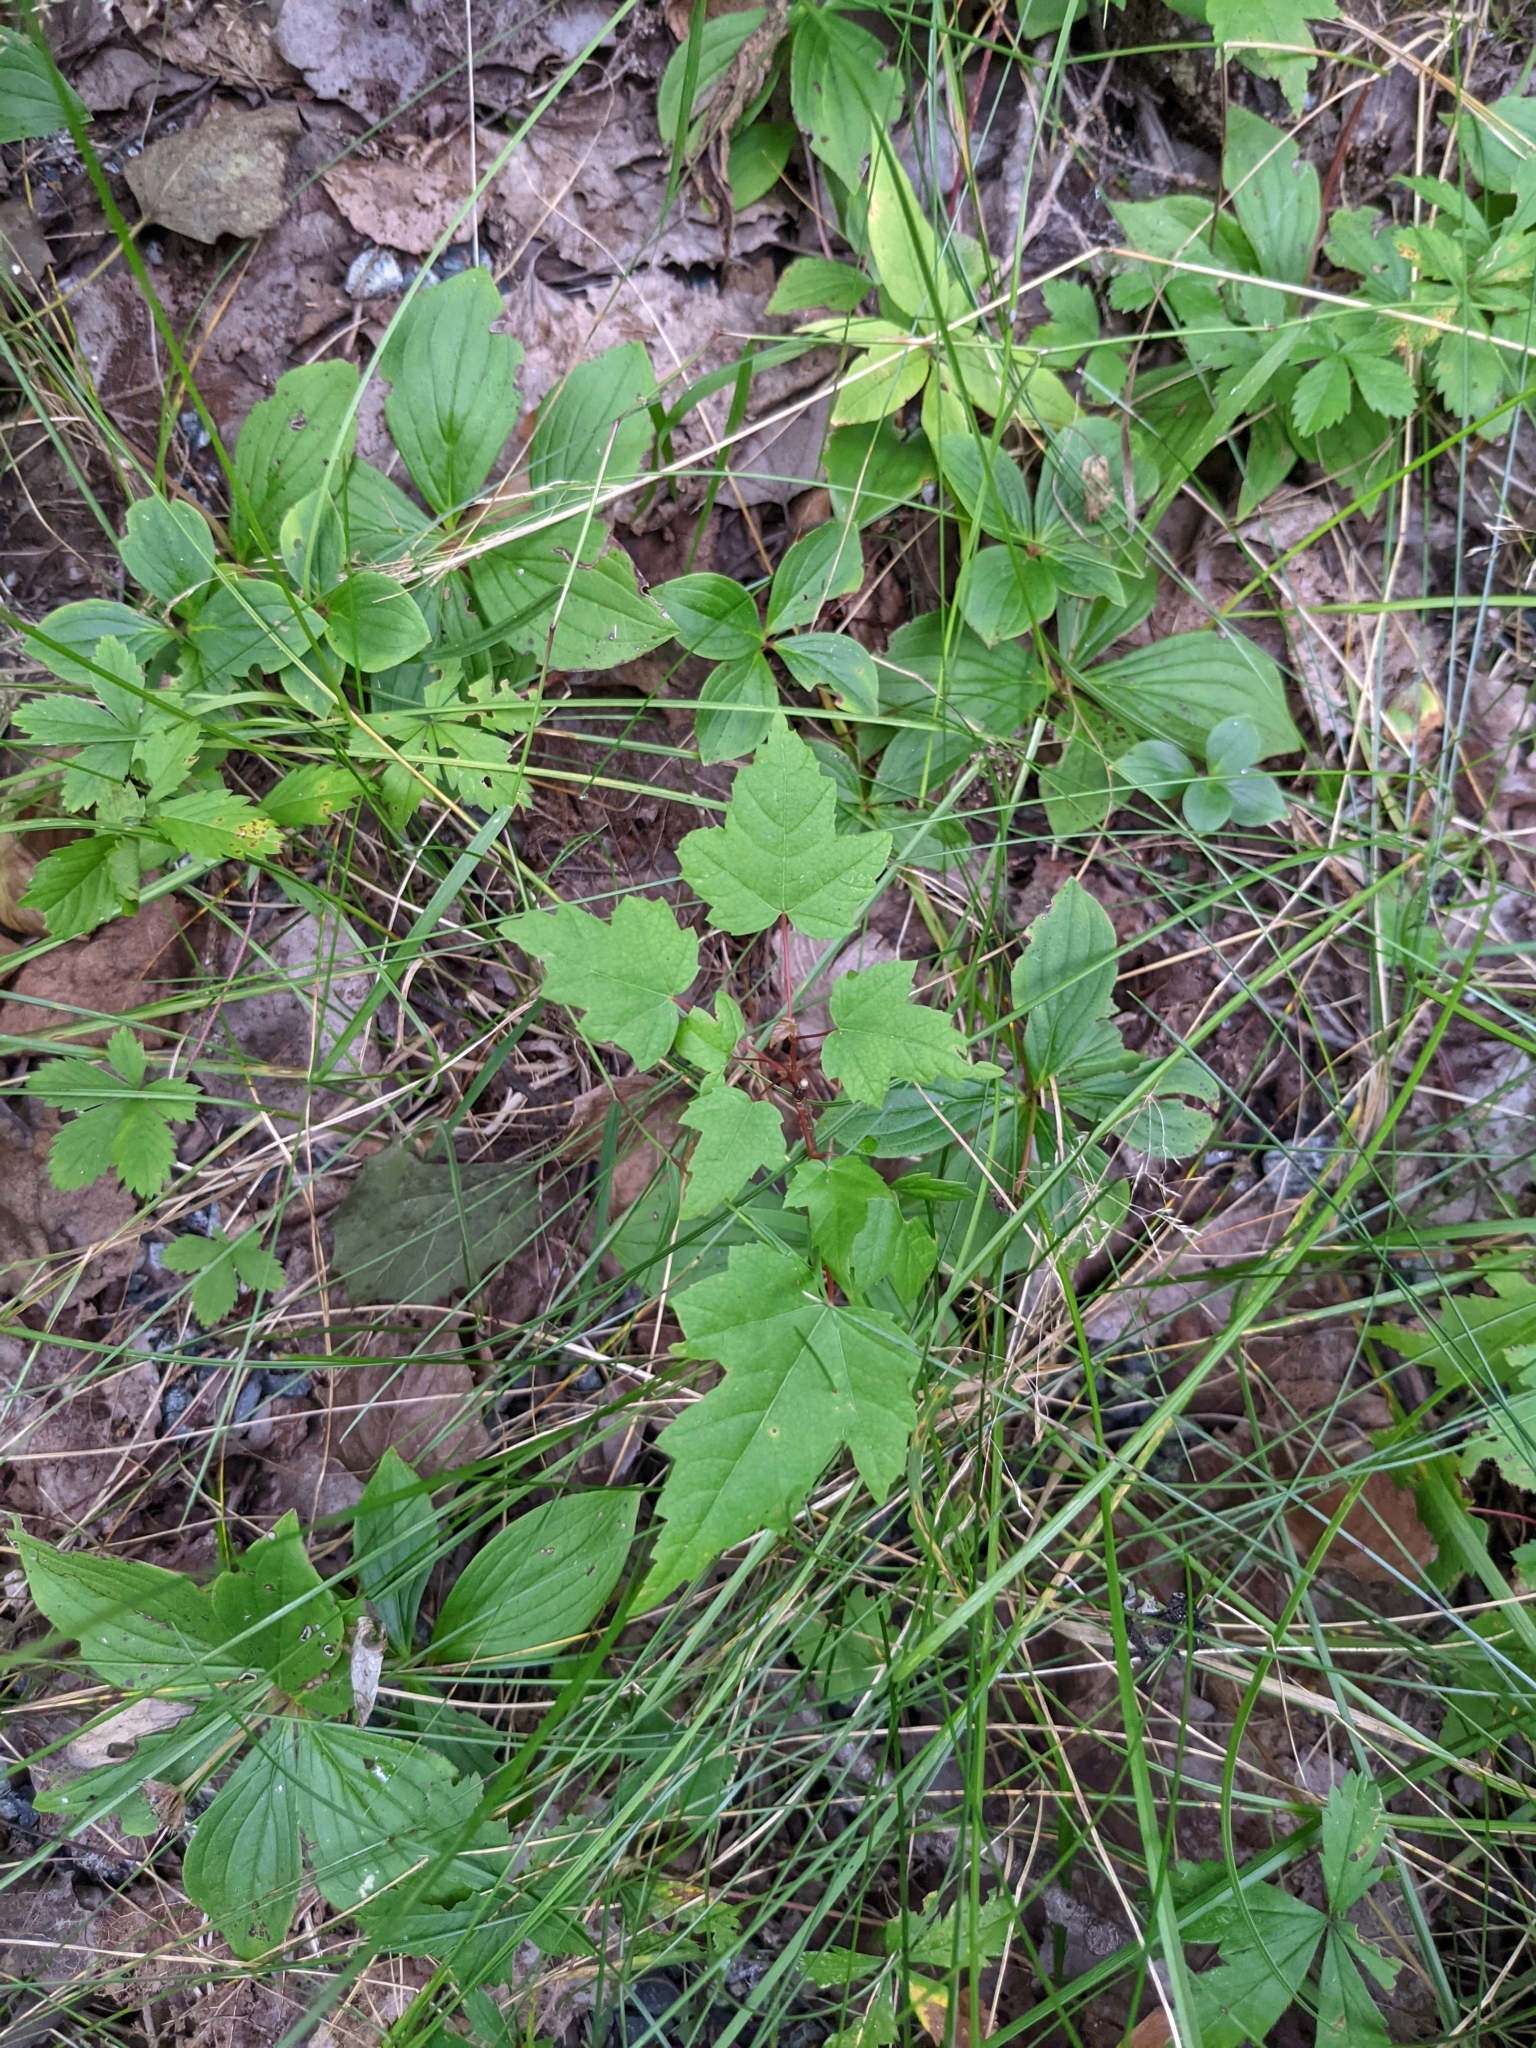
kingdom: Plantae
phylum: Tracheophyta
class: Magnoliopsida
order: Sapindales
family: Sapindaceae
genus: Acer
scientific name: Acer rubrum
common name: Red maple
